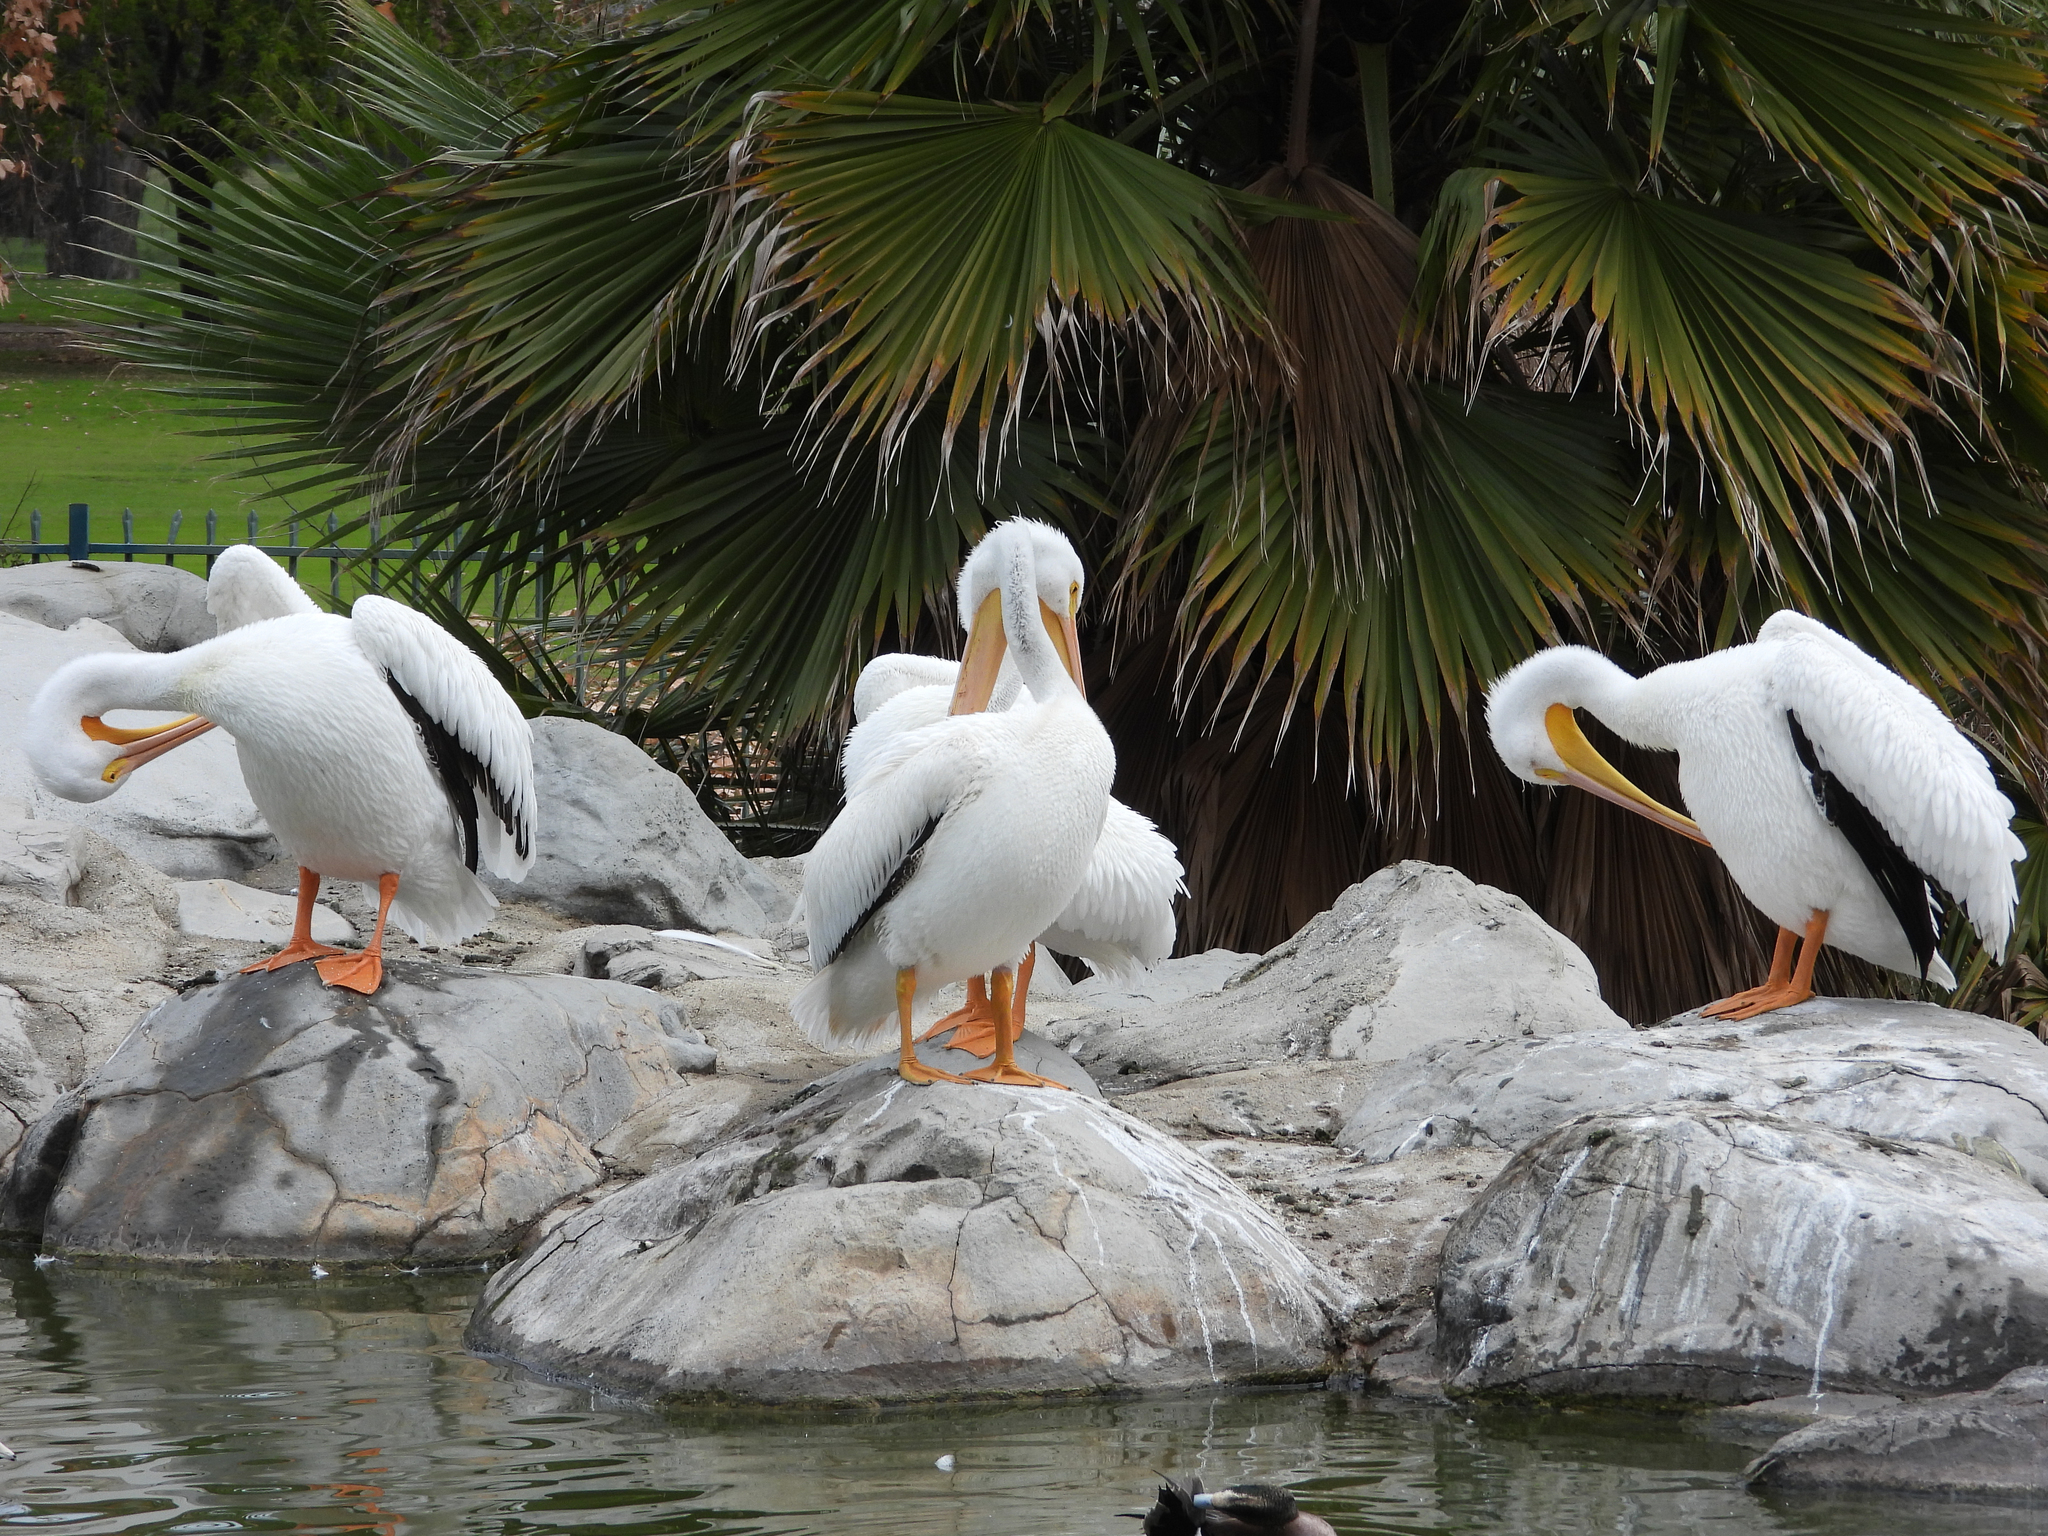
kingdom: Animalia
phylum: Chordata
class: Aves
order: Pelecaniformes
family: Pelecanidae
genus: Pelecanus
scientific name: Pelecanus erythrorhynchos
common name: American white pelican
